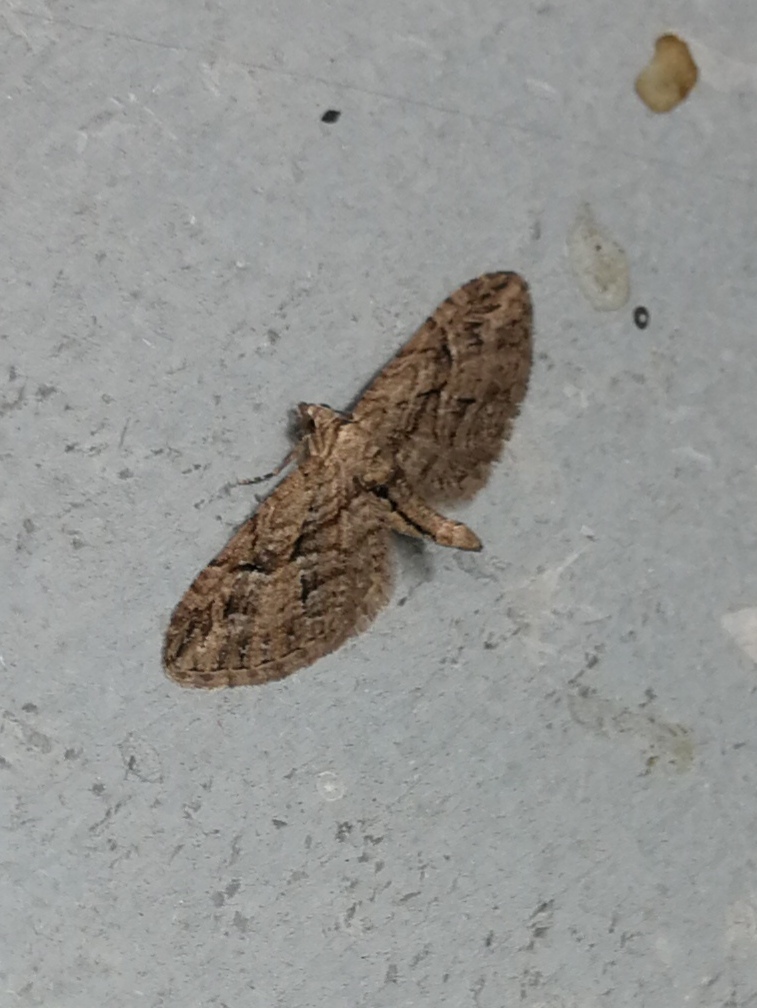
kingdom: Animalia
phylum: Arthropoda
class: Insecta
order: Lepidoptera
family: Geometridae
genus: Eupithecia
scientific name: Eupithecia oxycedrata
